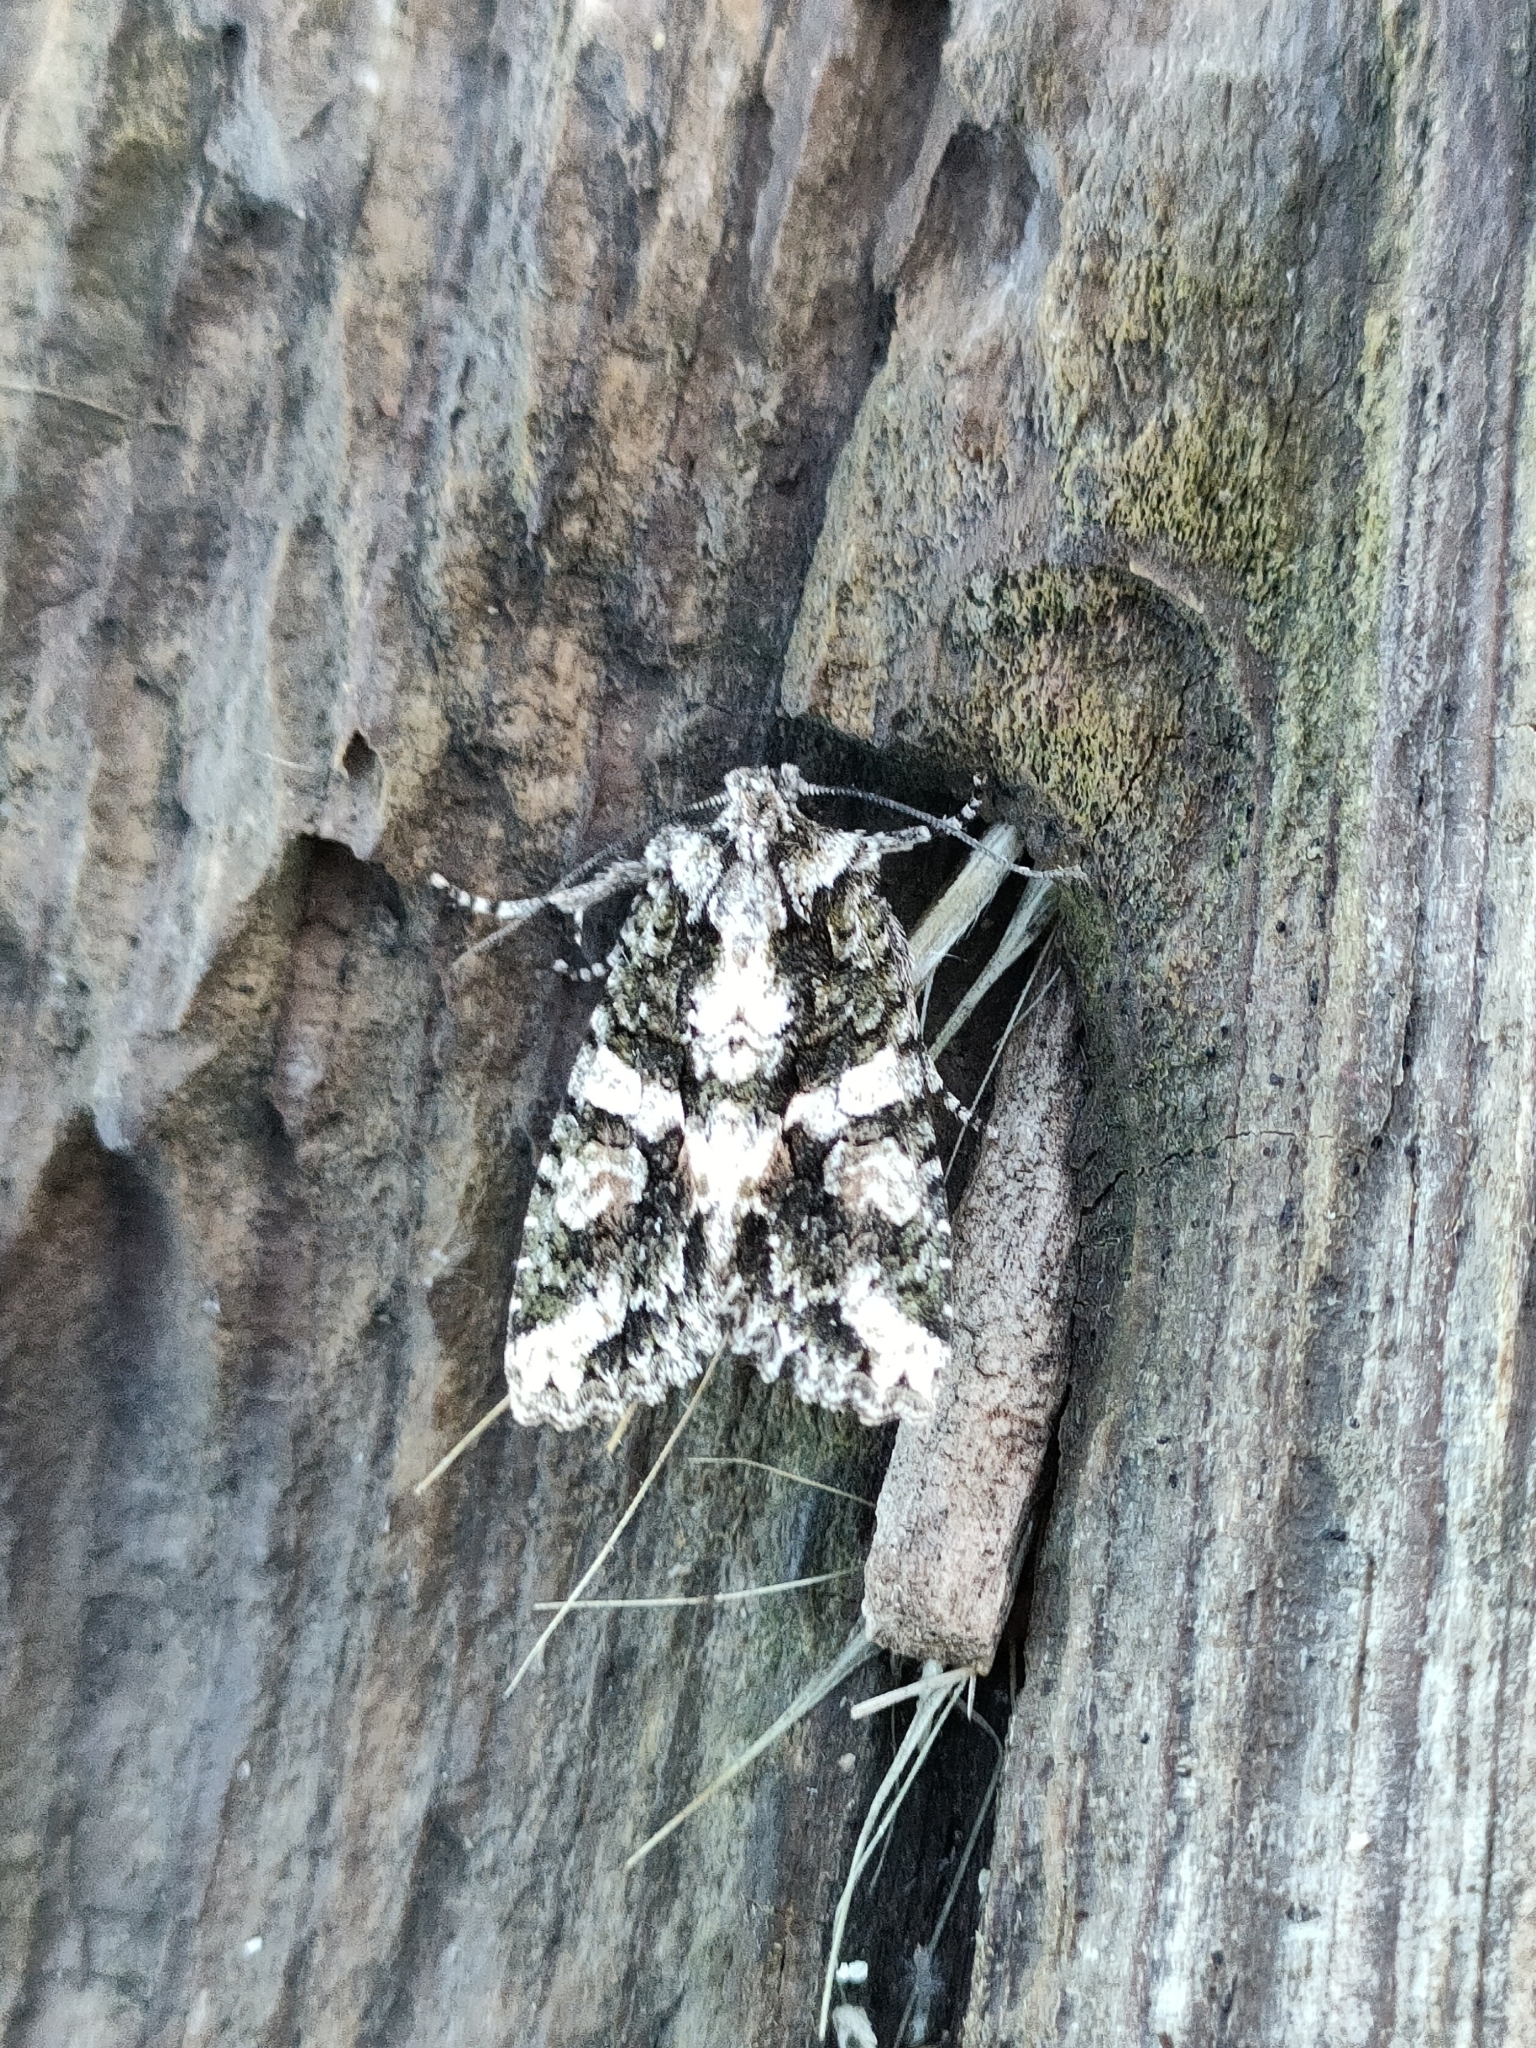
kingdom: Animalia
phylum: Arthropoda
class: Insecta
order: Lepidoptera
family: Noctuidae
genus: Dryobotodes
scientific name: Dryobotodes tenebrosa
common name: Sombre brocade
